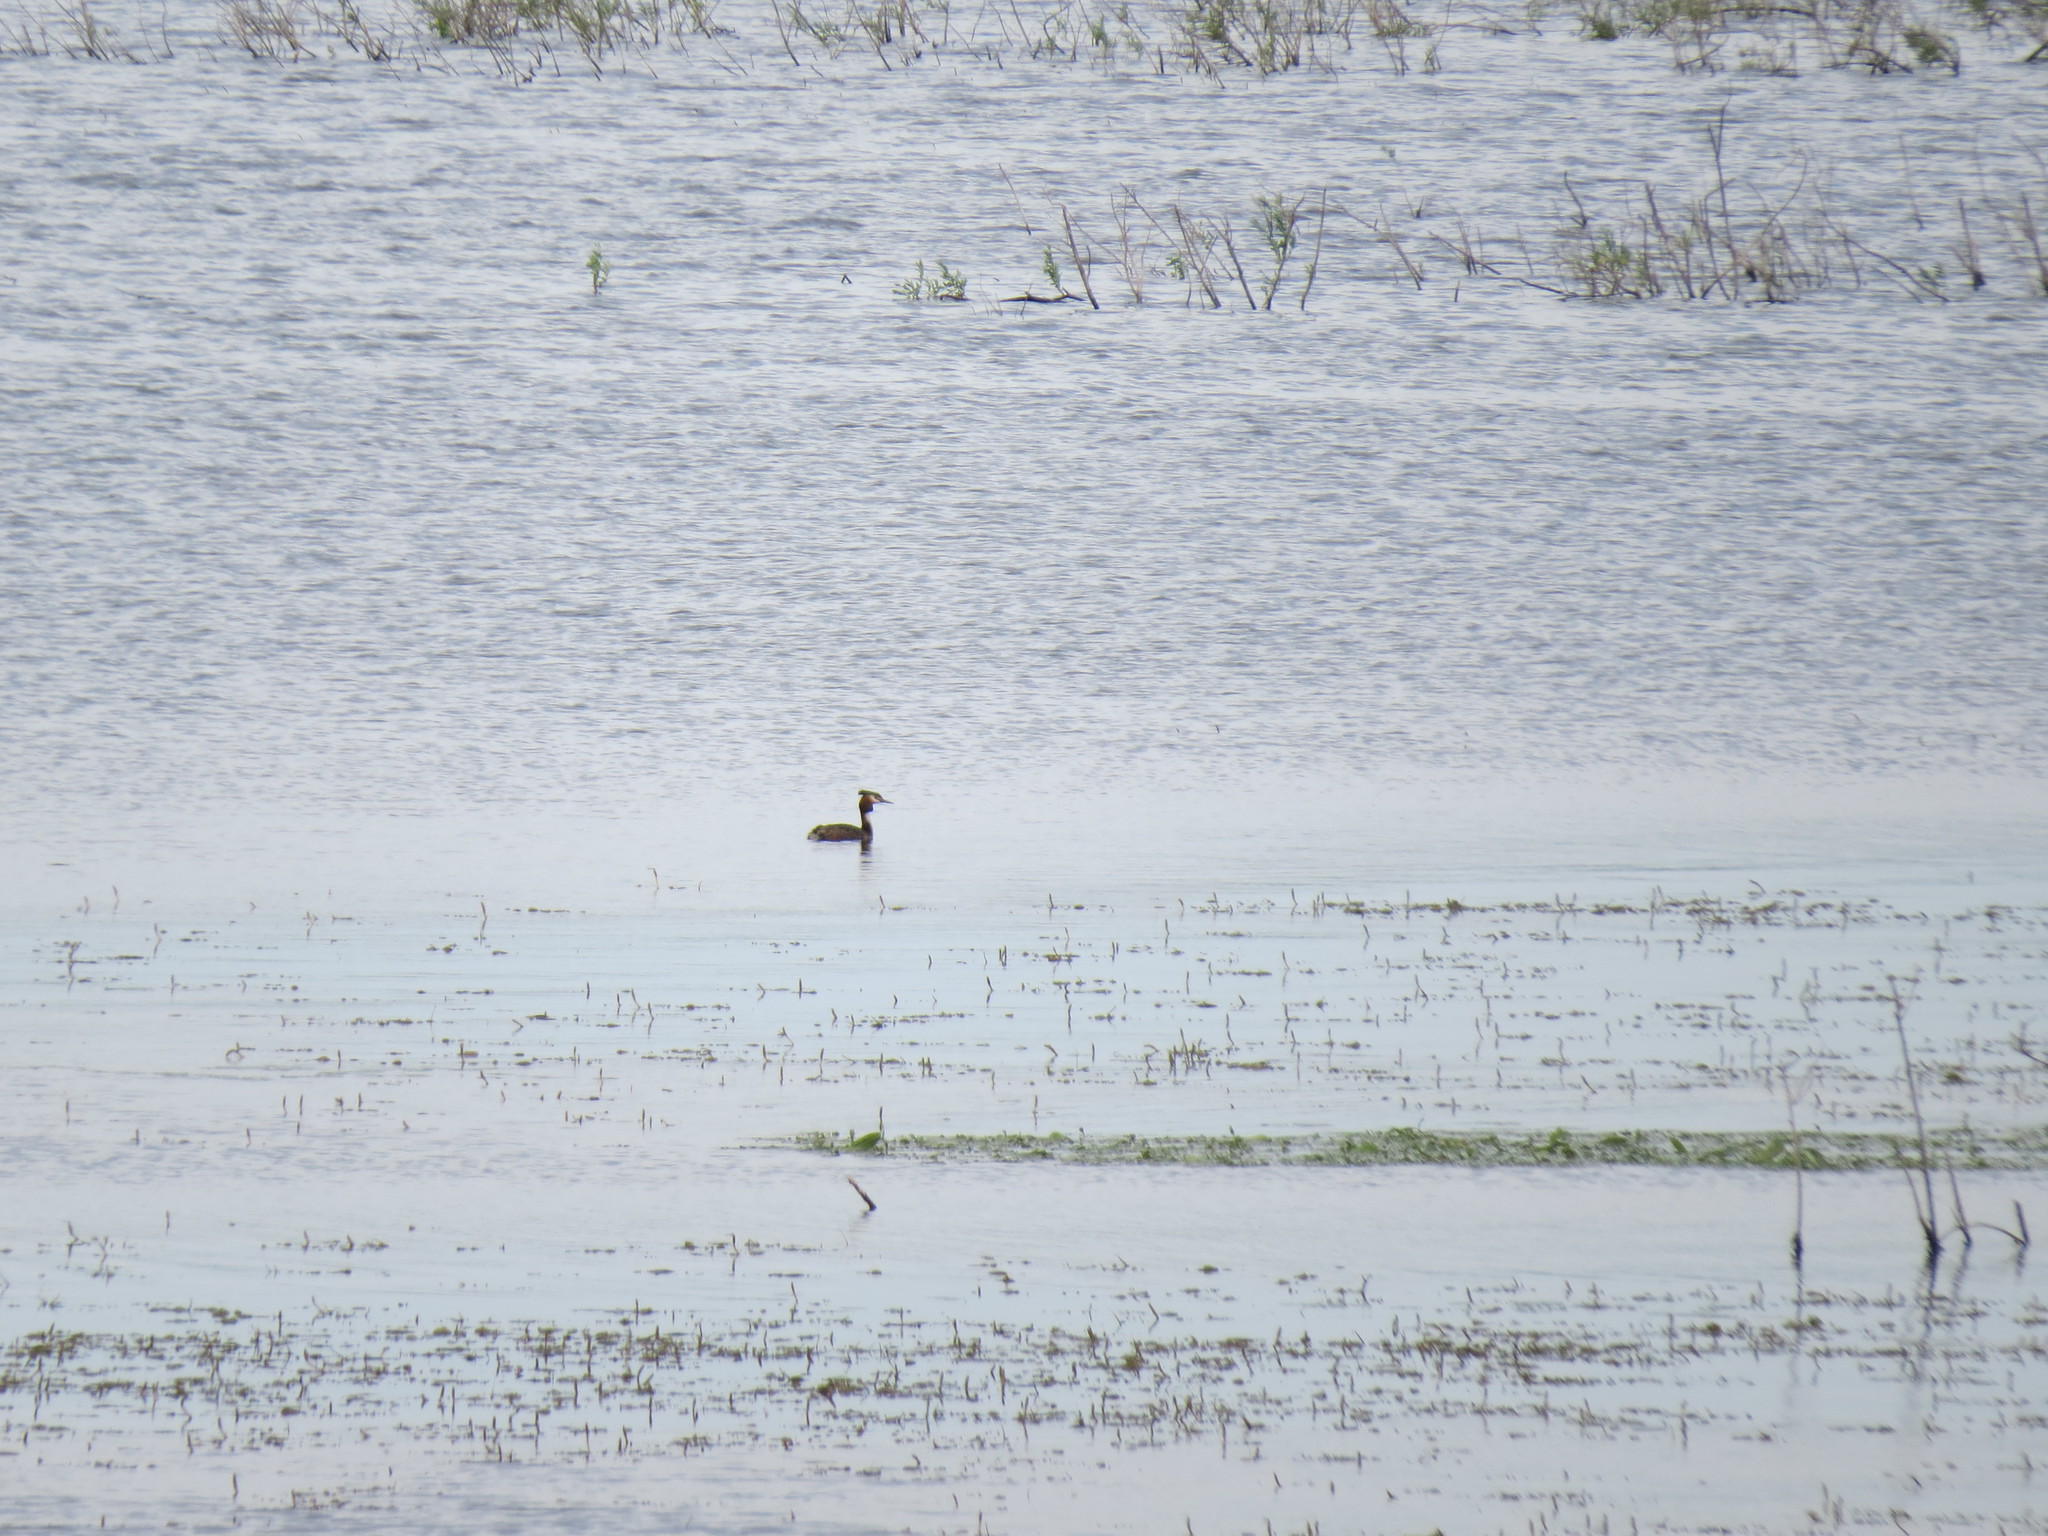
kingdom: Animalia
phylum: Chordata
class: Aves
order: Podicipediformes
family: Podicipedidae
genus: Podiceps
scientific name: Podiceps cristatus
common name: Great crested grebe
